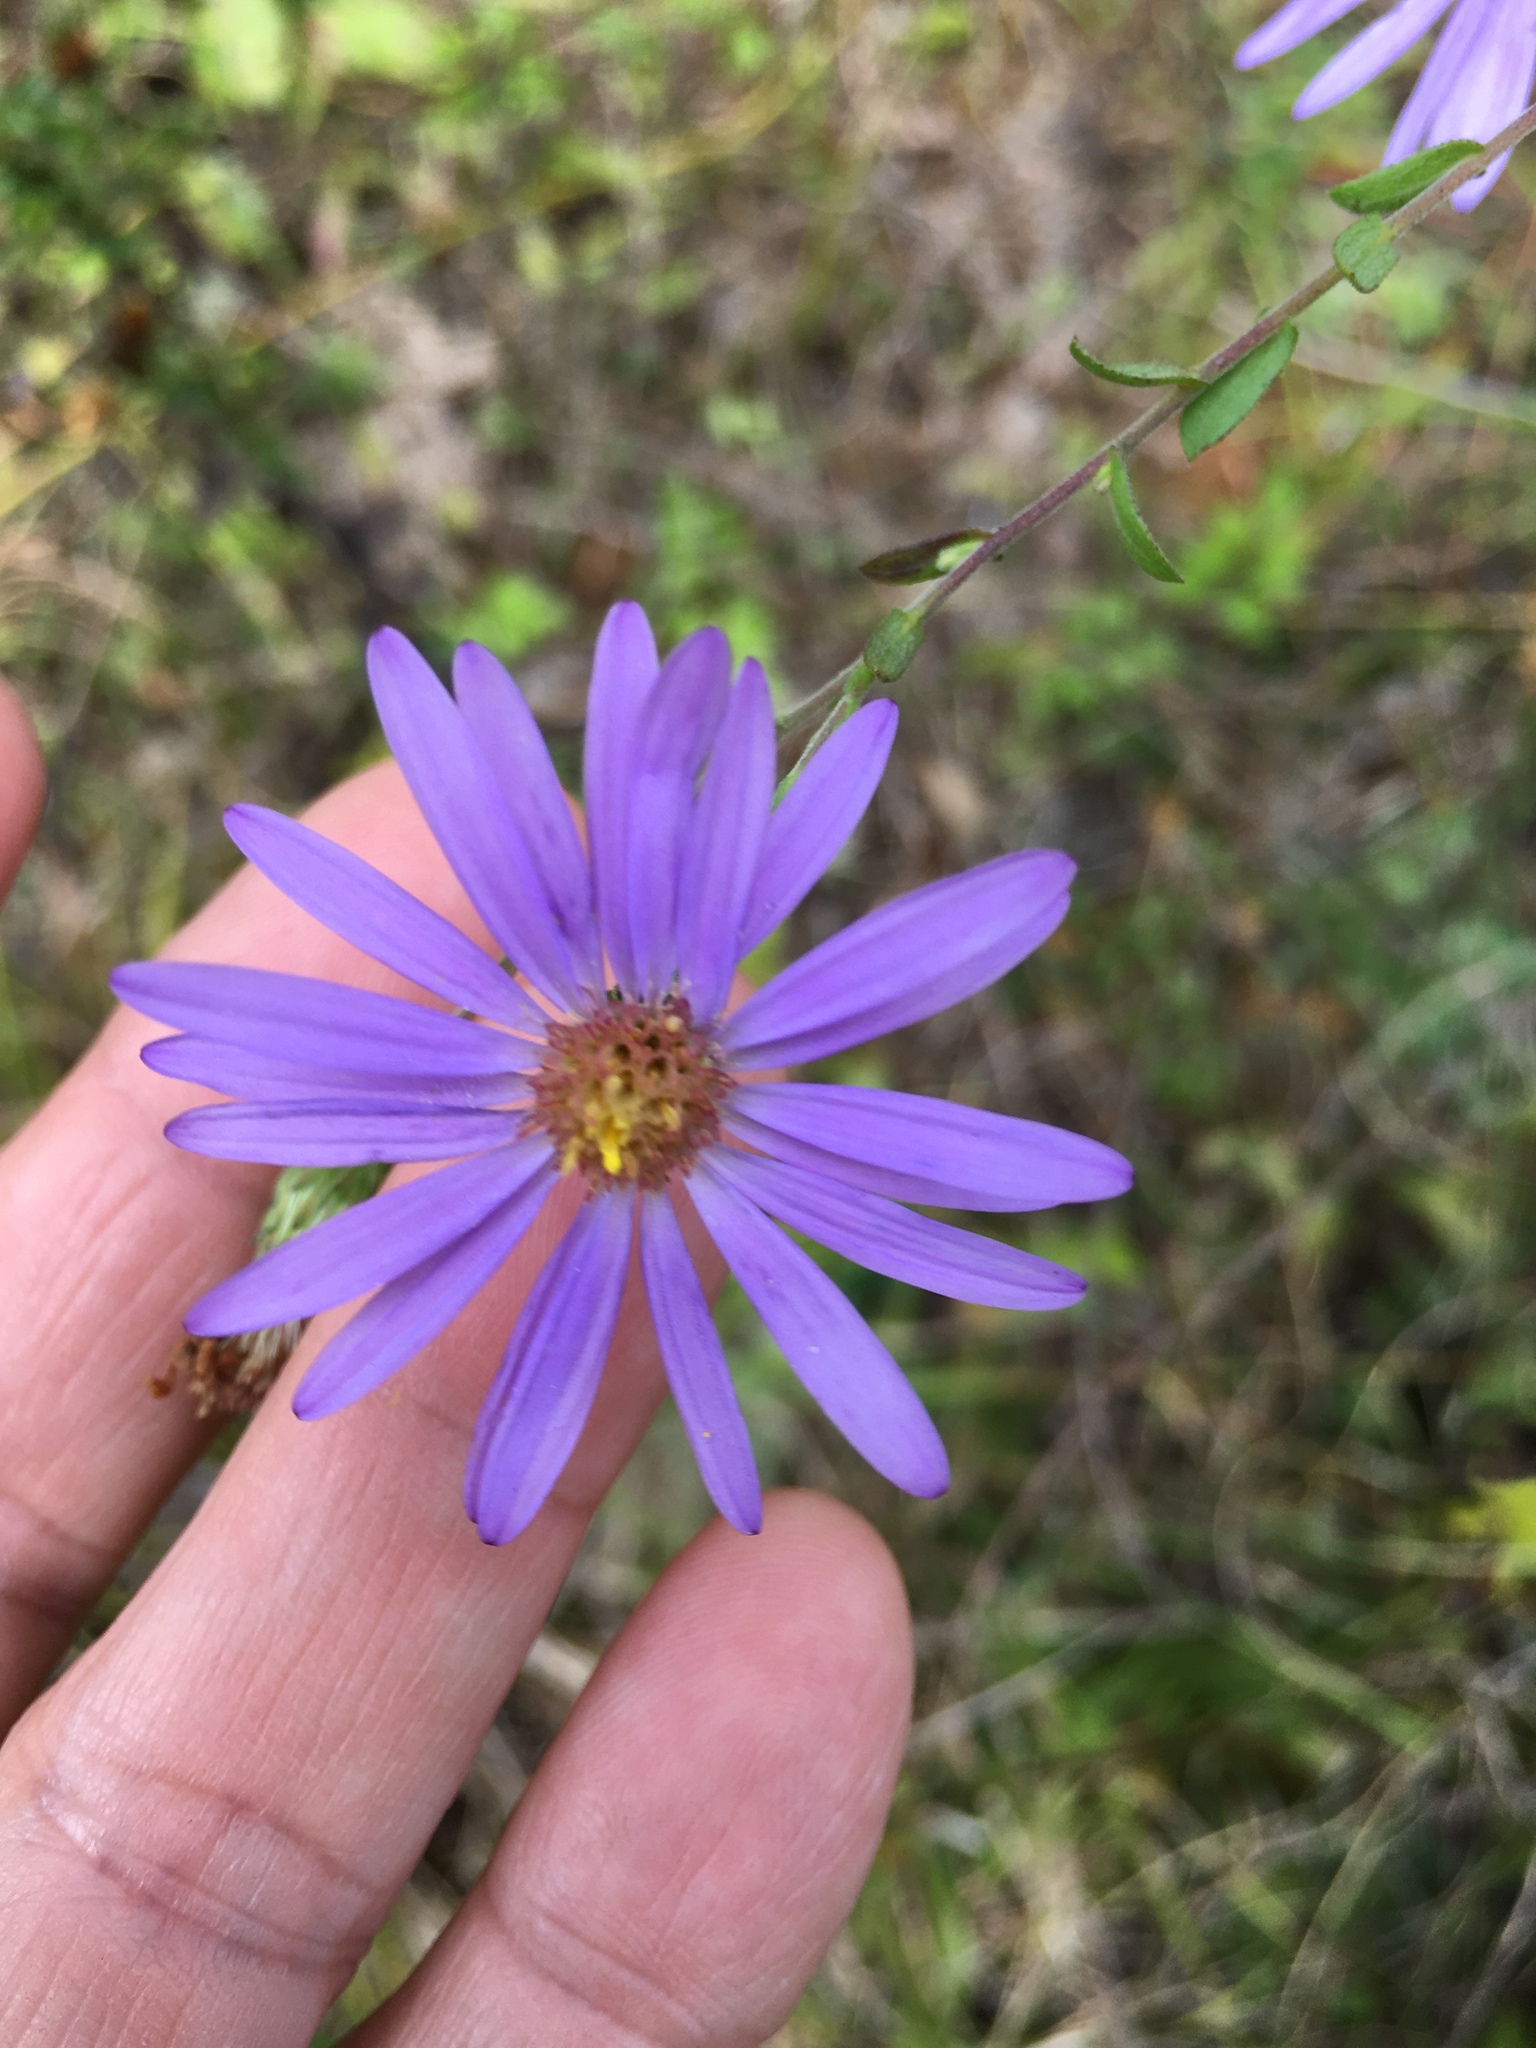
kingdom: Plantae
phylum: Tracheophyta
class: Magnoliopsida
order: Asterales
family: Asteraceae
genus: Symphyotrichum
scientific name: Symphyotrichum patens
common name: Late purple aster
